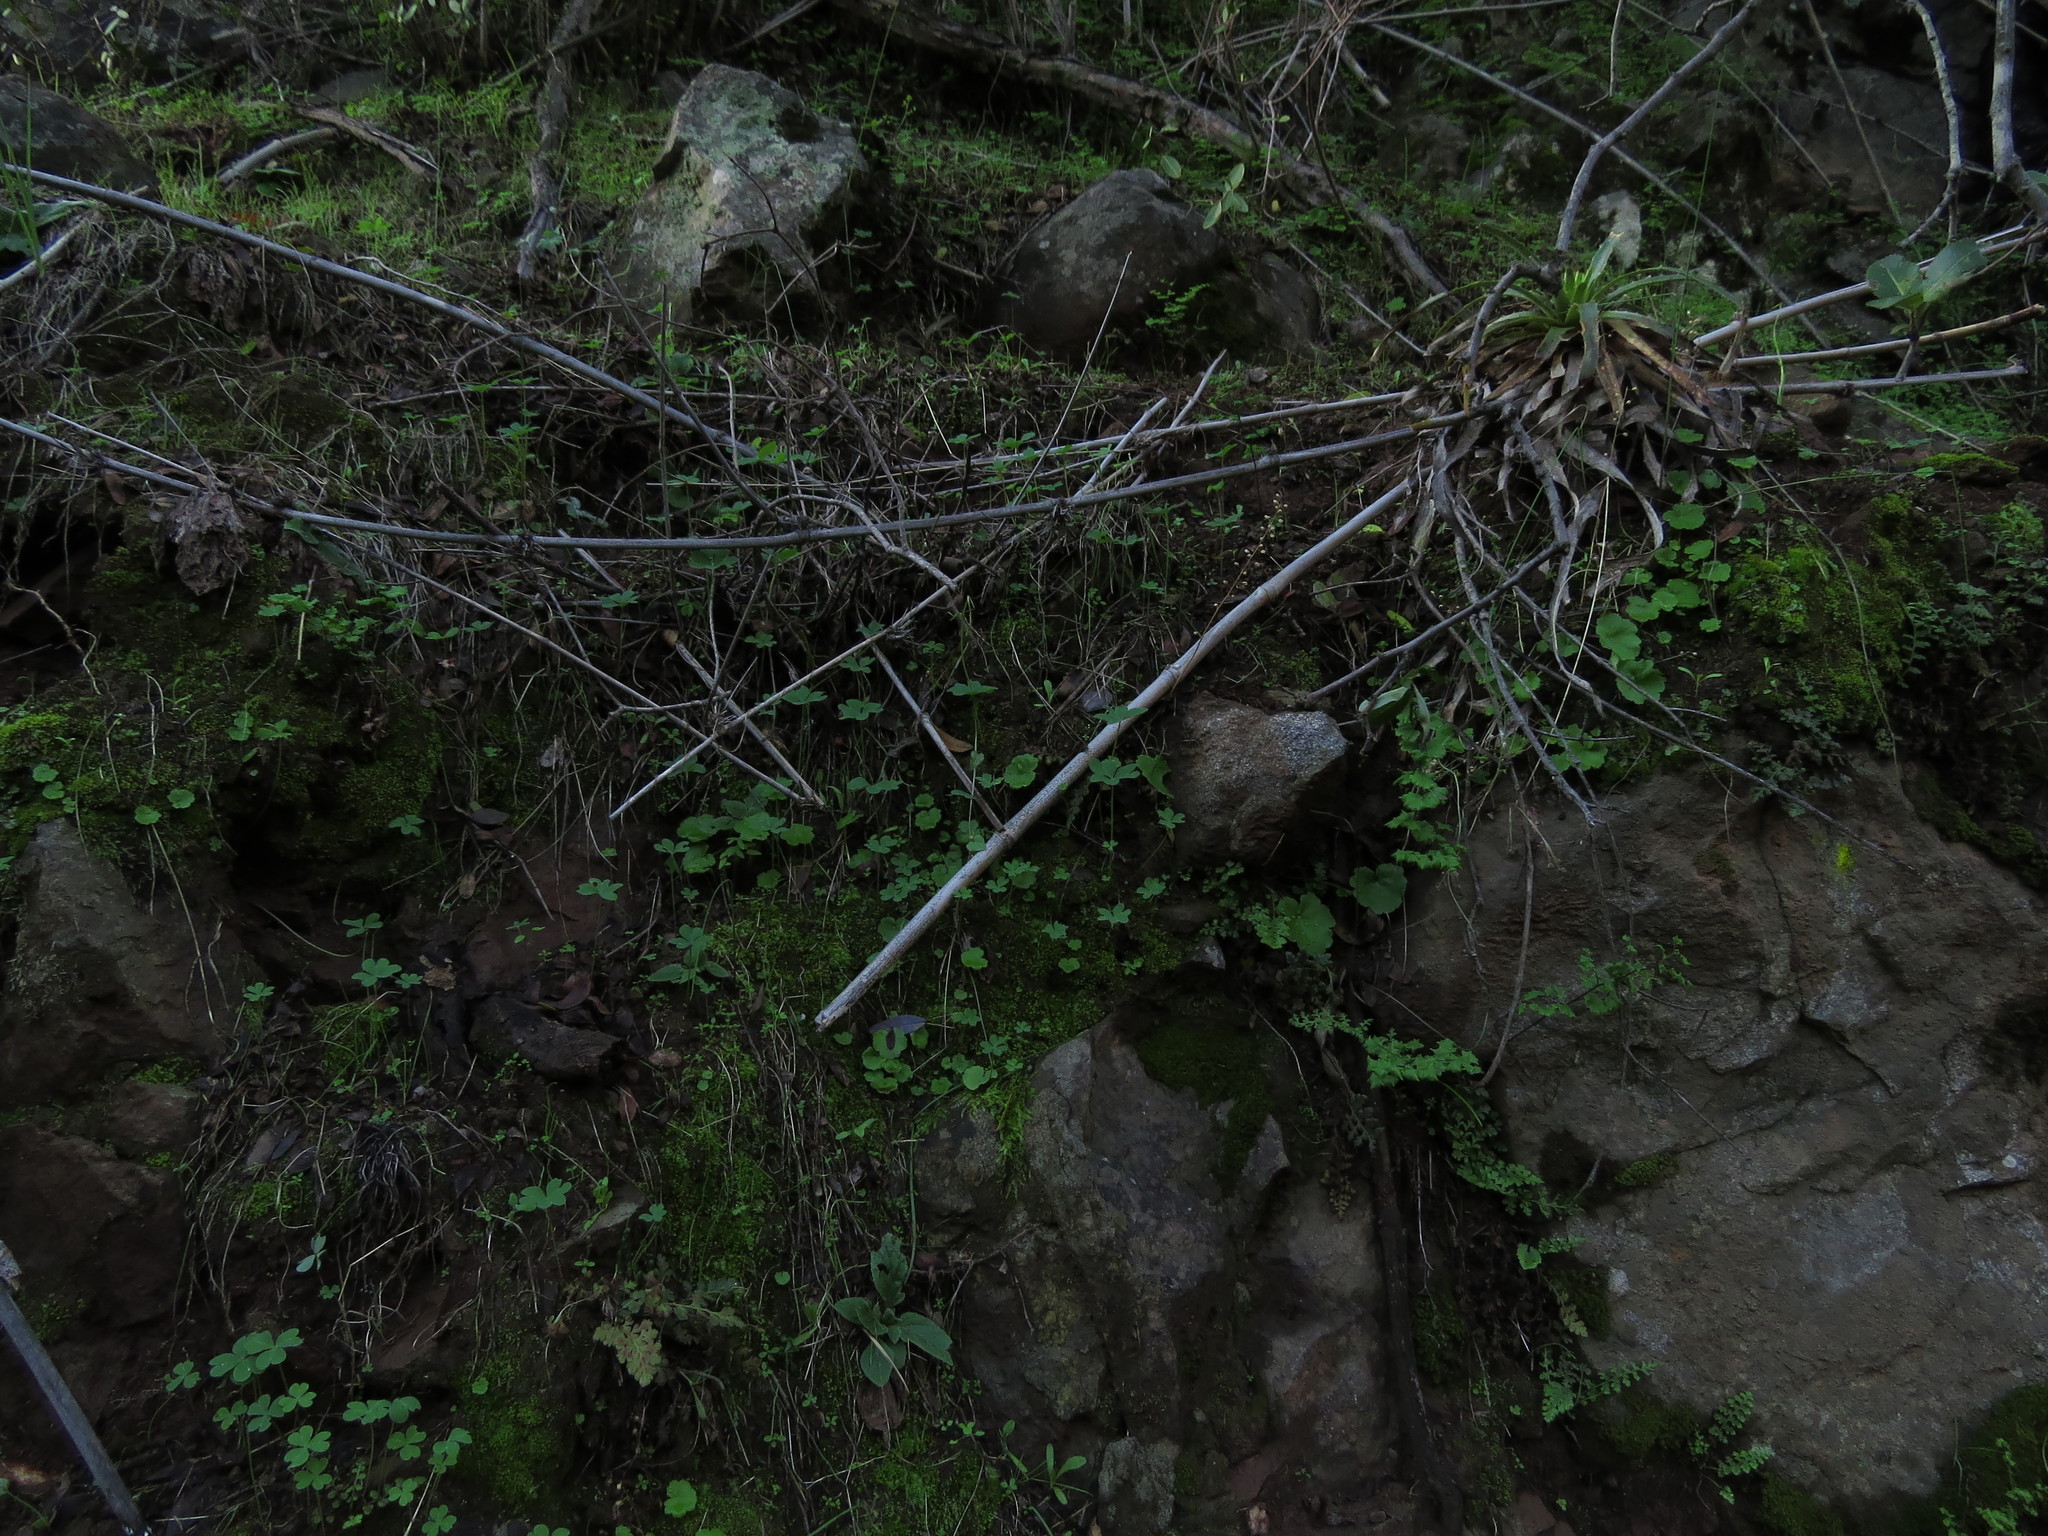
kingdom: Plantae
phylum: Tracheophyta
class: Magnoliopsida
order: Geraniales
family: Francoaceae
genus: Tetilla
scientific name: Tetilla hydrocotylifolia
